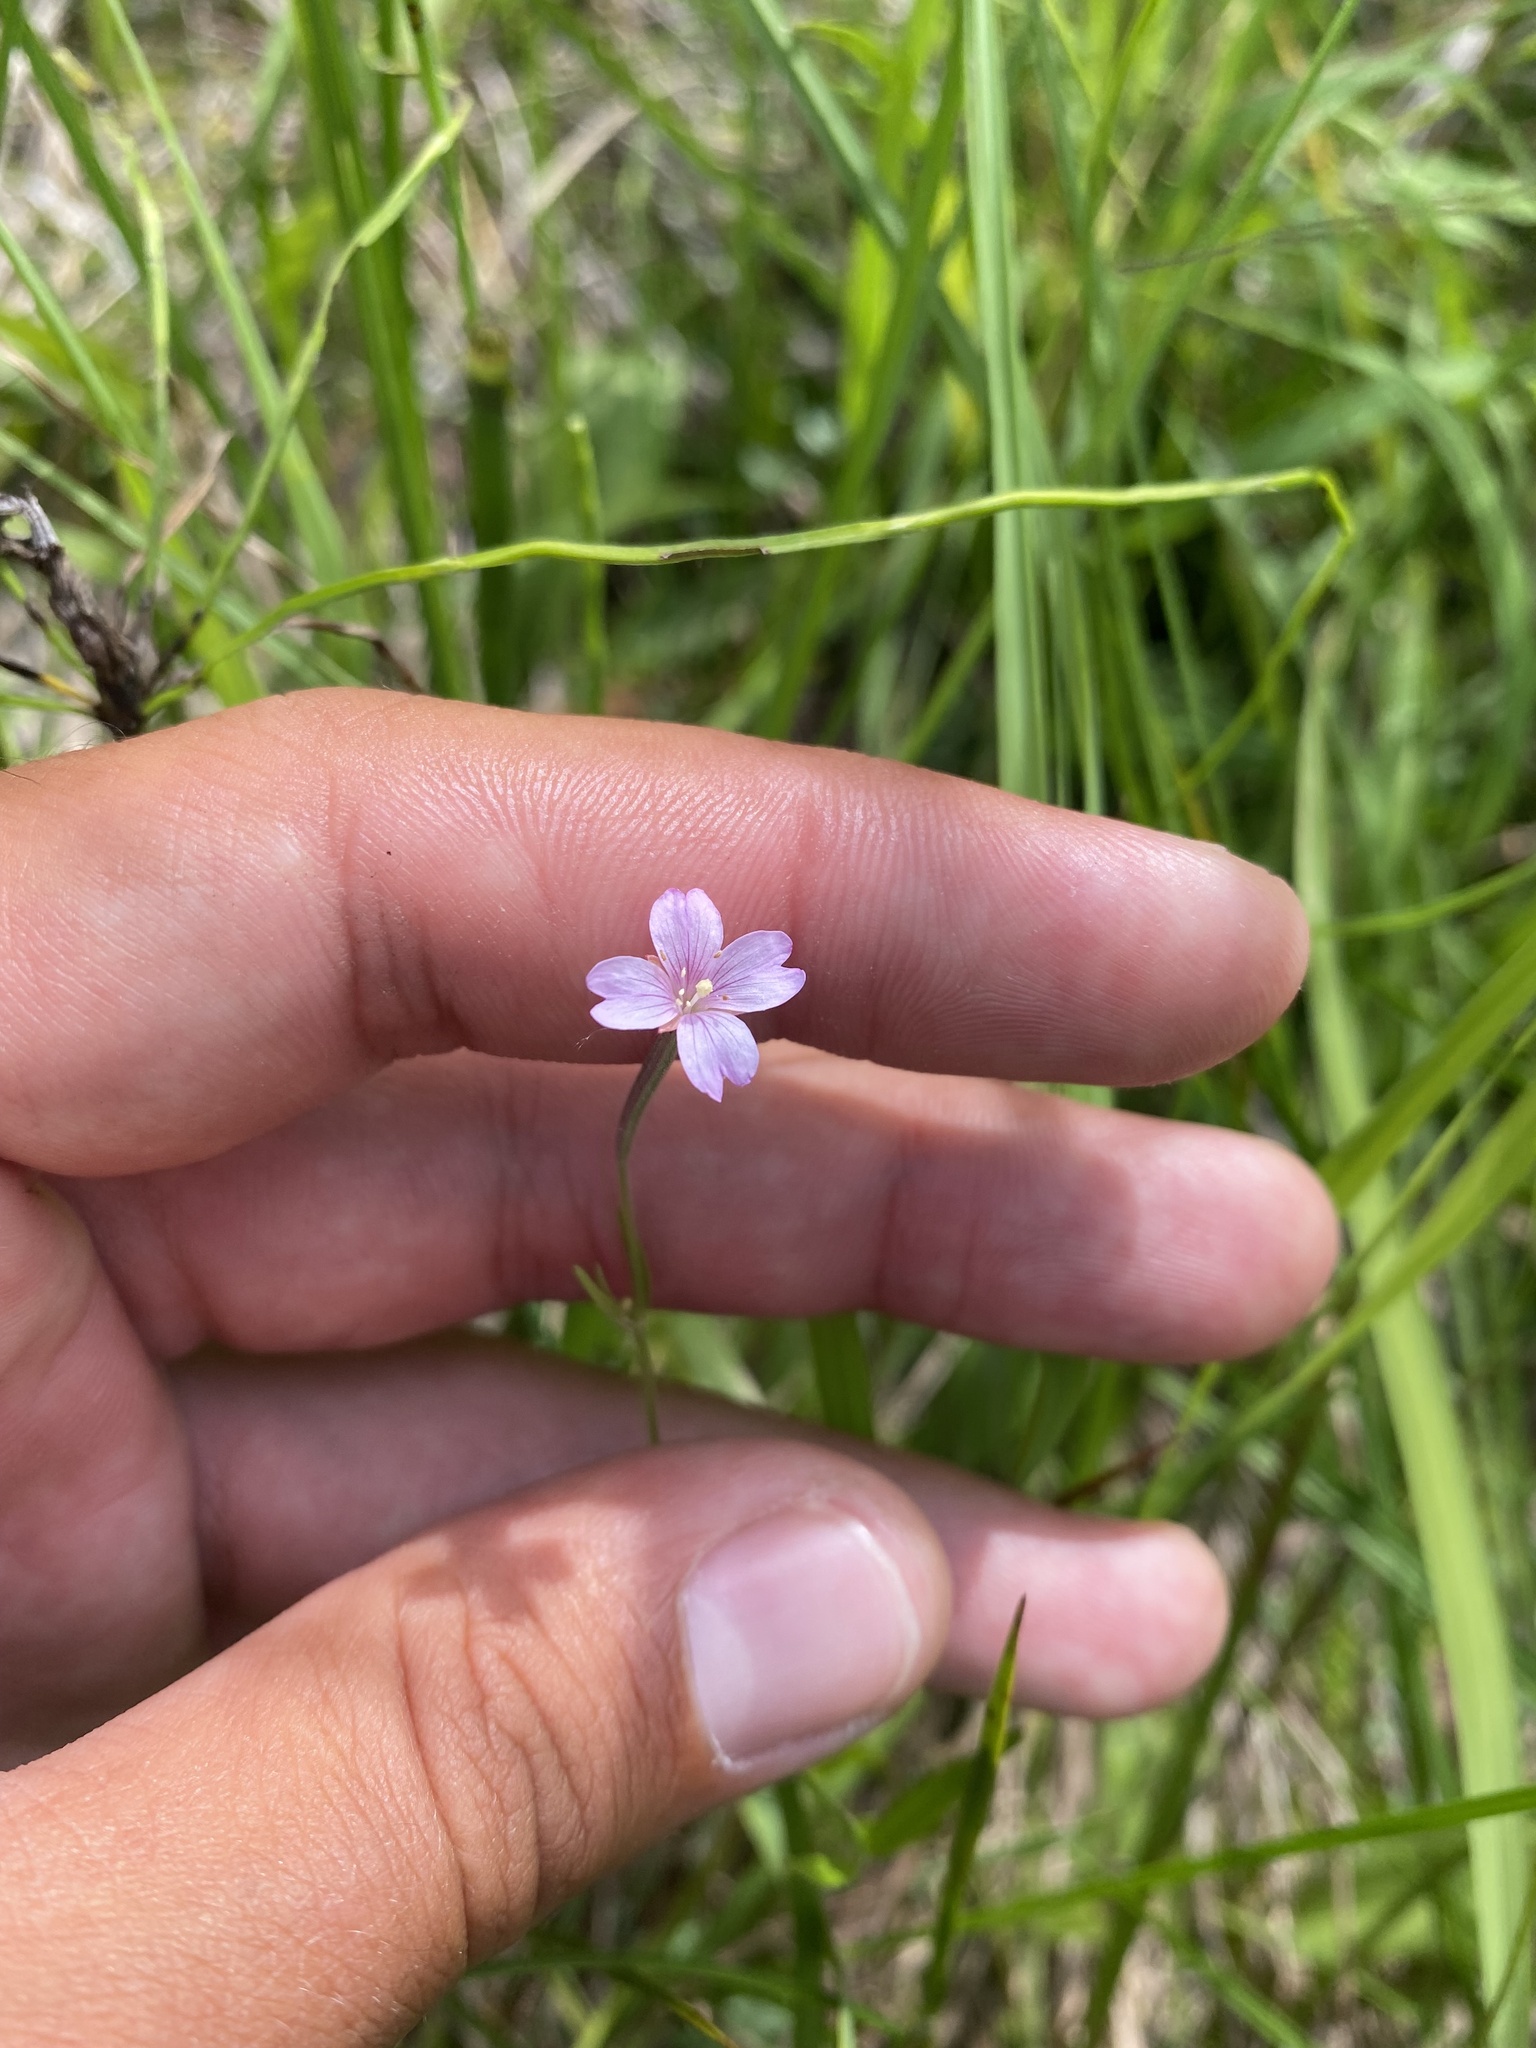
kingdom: Plantae
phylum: Tracheophyta
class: Magnoliopsida
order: Myrtales
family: Onagraceae
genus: Epilobium
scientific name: Epilobium palustre
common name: Marsh willowherb
